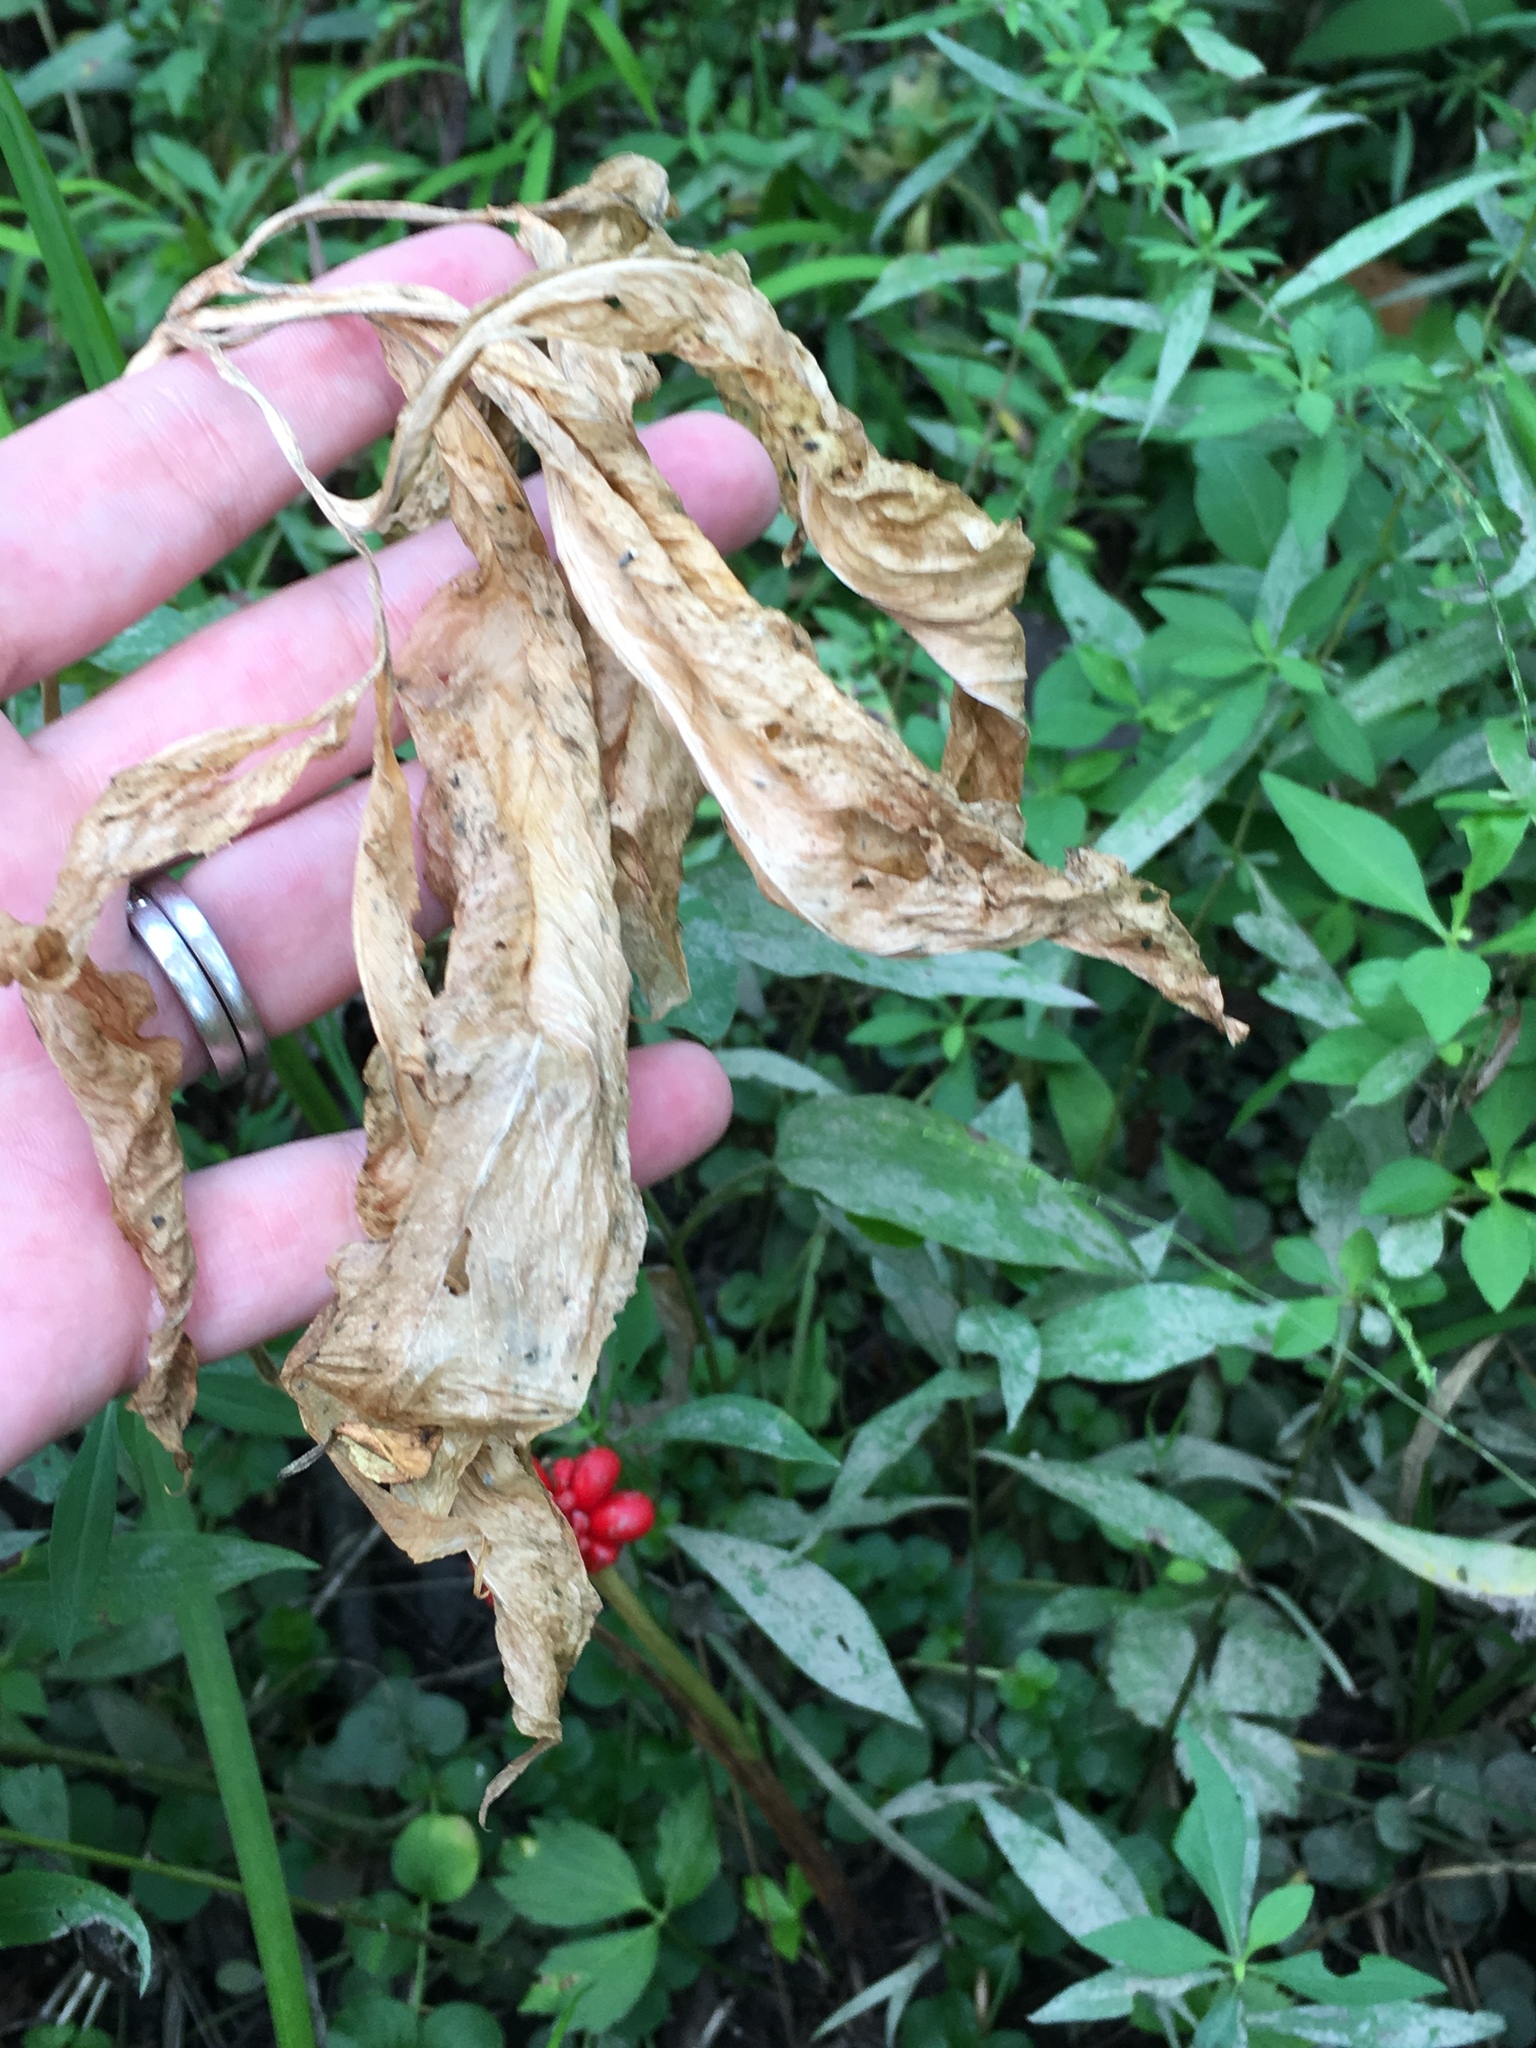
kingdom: Plantae
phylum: Tracheophyta
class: Liliopsida
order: Alismatales
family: Araceae
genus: Arisaema
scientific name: Arisaema dracontium
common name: Dragon-arum
